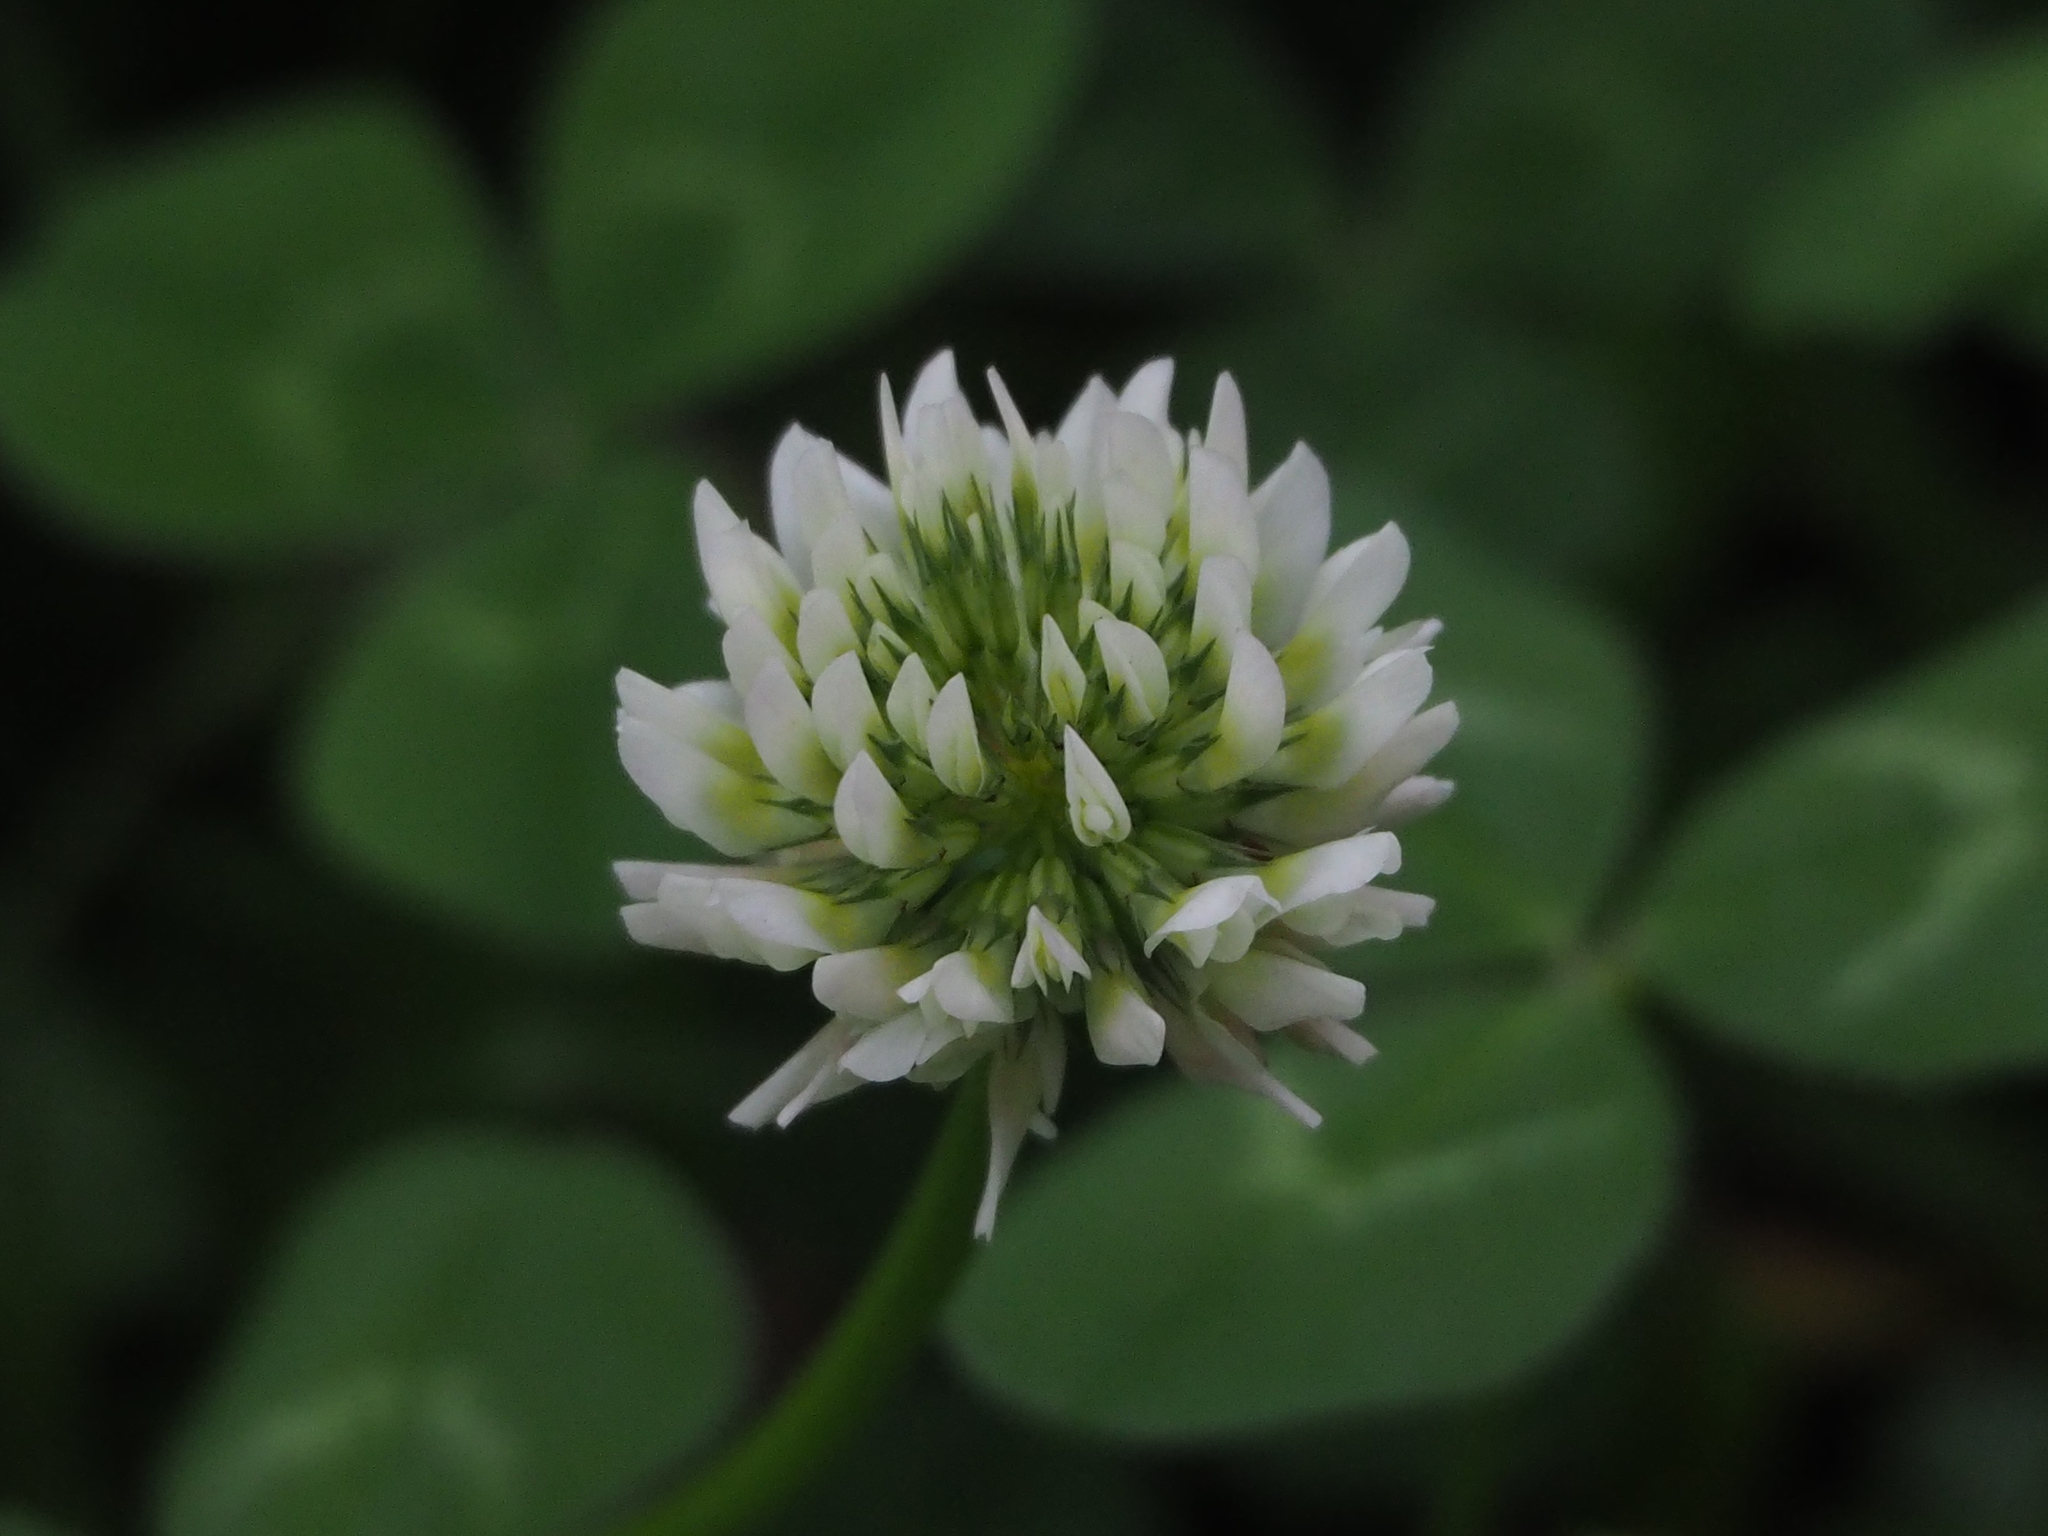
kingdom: Plantae
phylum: Tracheophyta
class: Magnoliopsida
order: Fabales
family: Fabaceae
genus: Trifolium
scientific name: Trifolium repens
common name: White clover
